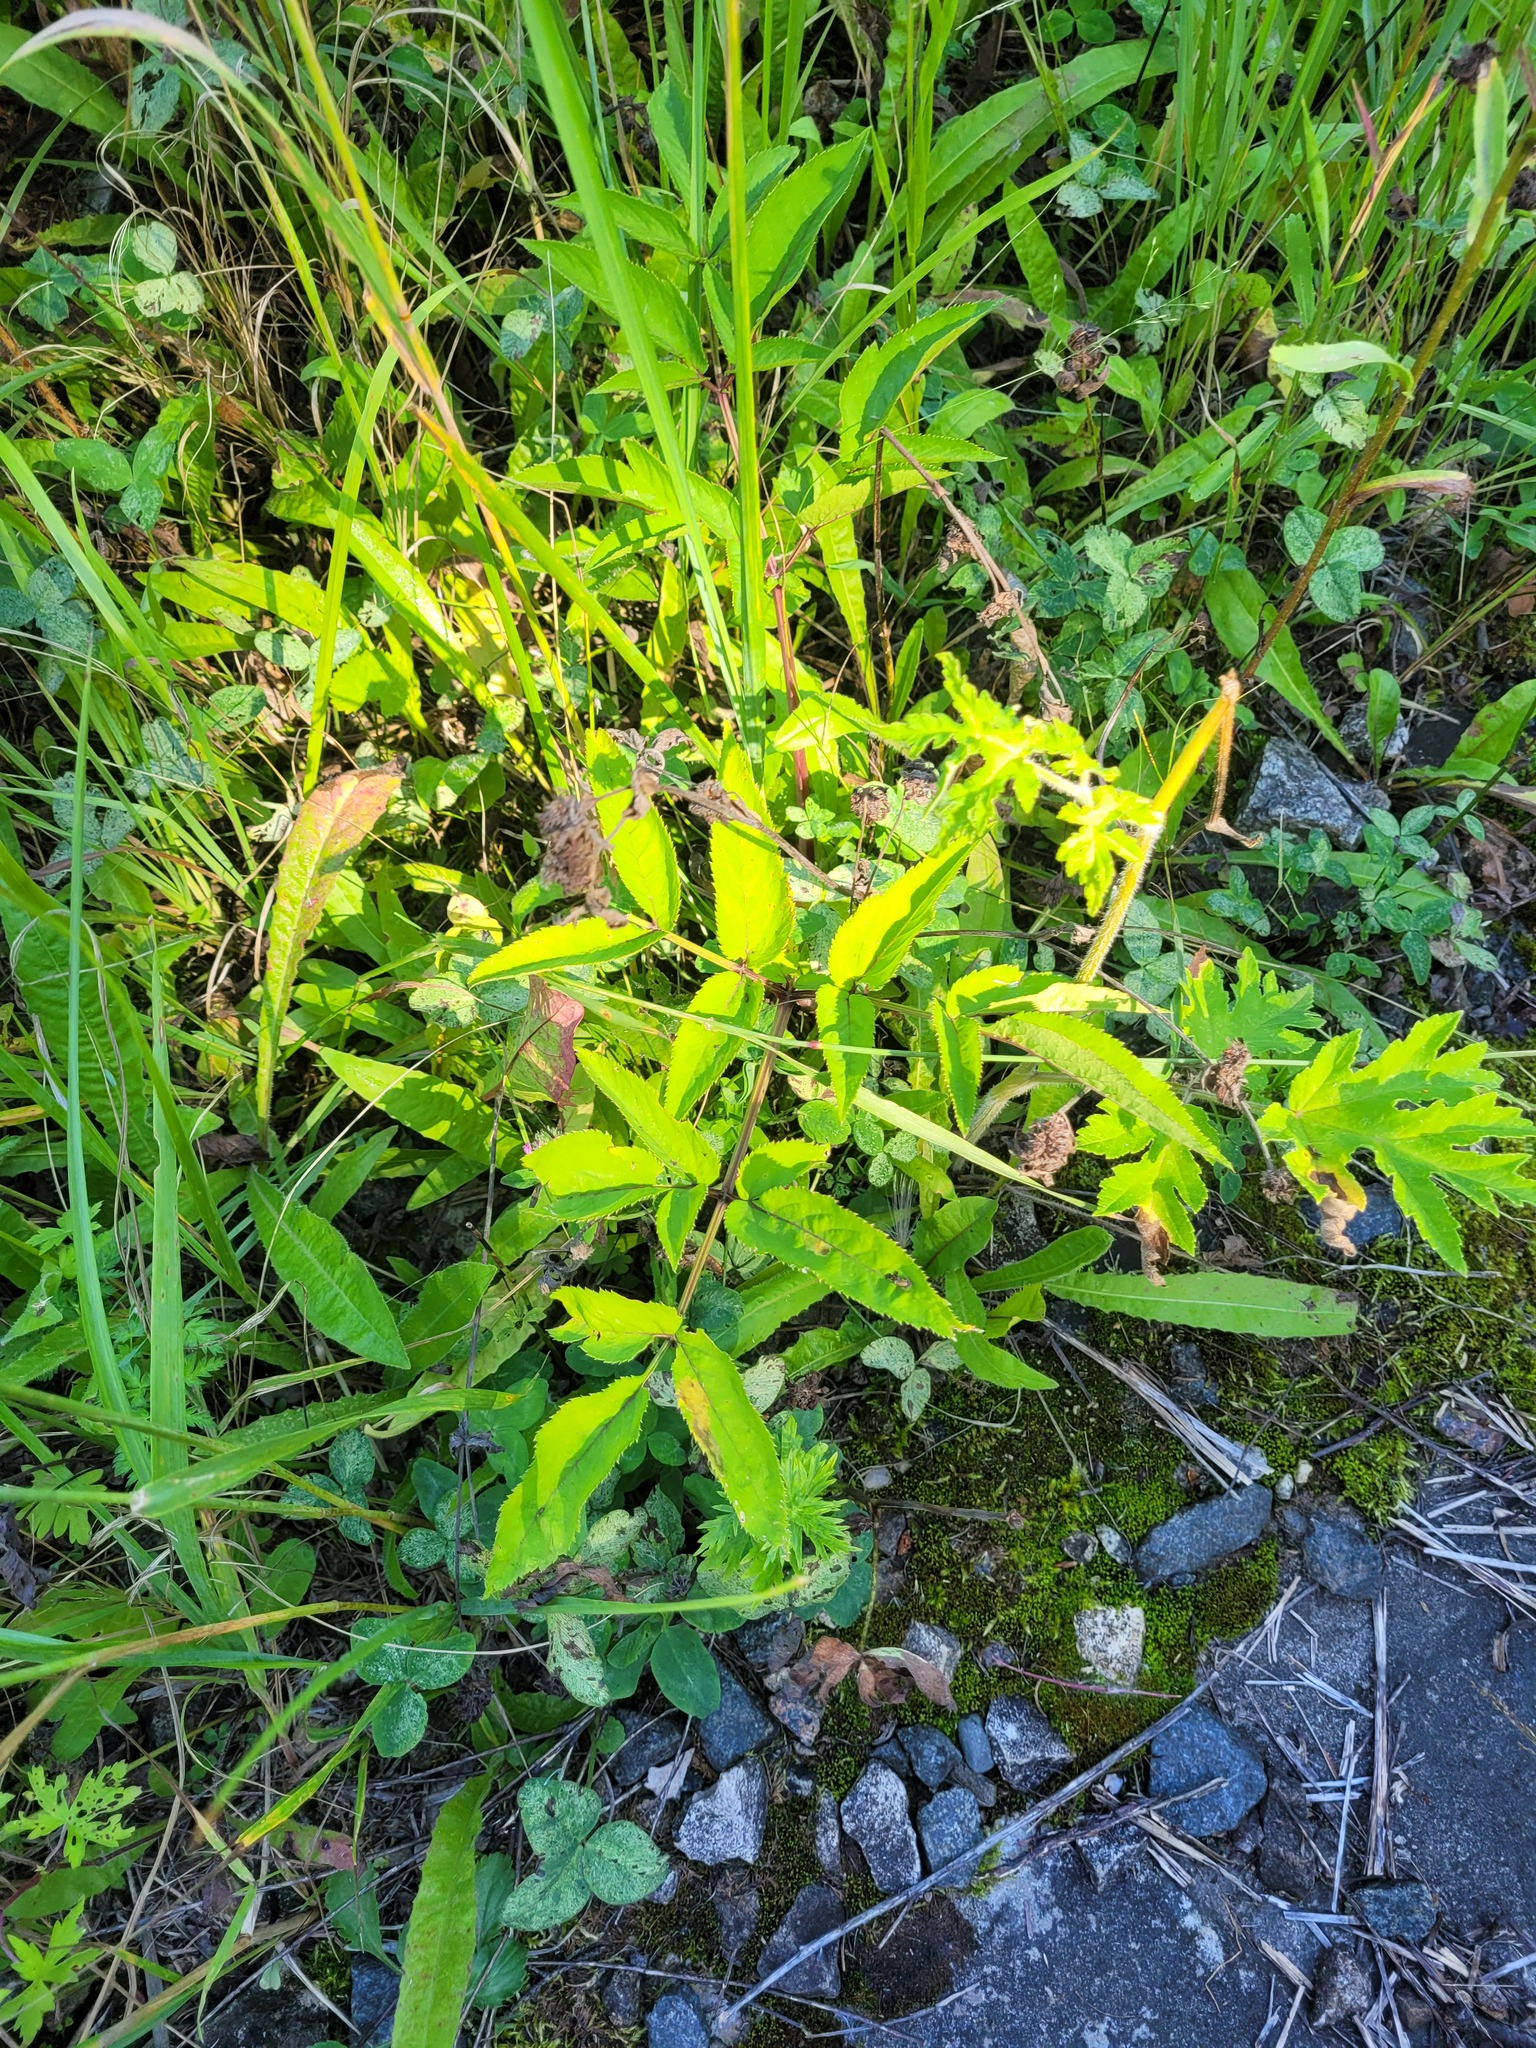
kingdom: Plantae
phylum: Tracheophyta
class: Magnoliopsida
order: Apiales
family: Apiaceae
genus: Angelica
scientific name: Angelica sylvestris
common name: Wild angelica
